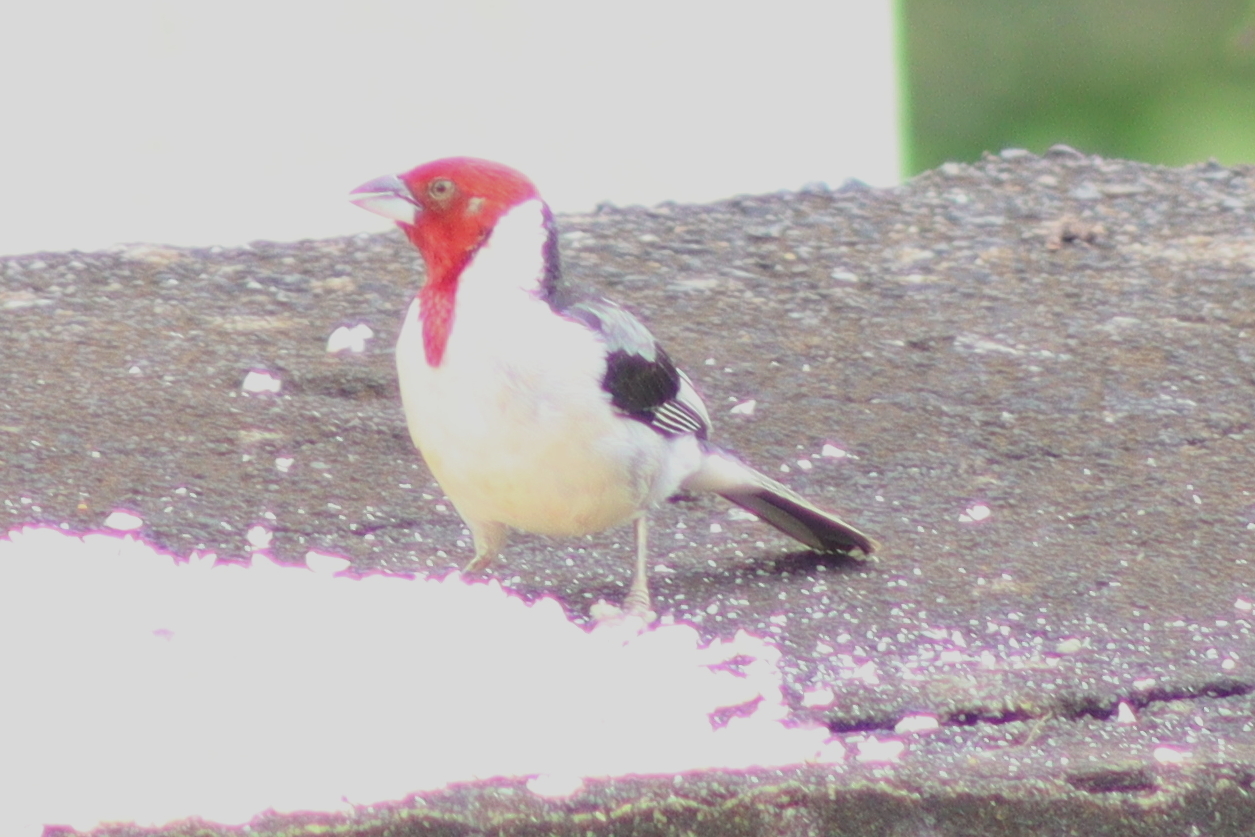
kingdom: Animalia
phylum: Chordata
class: Aves
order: Passeriformes
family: Thraupidae
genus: Paroaria
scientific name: Paroaria dominicana
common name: Red-cowled cardinal
